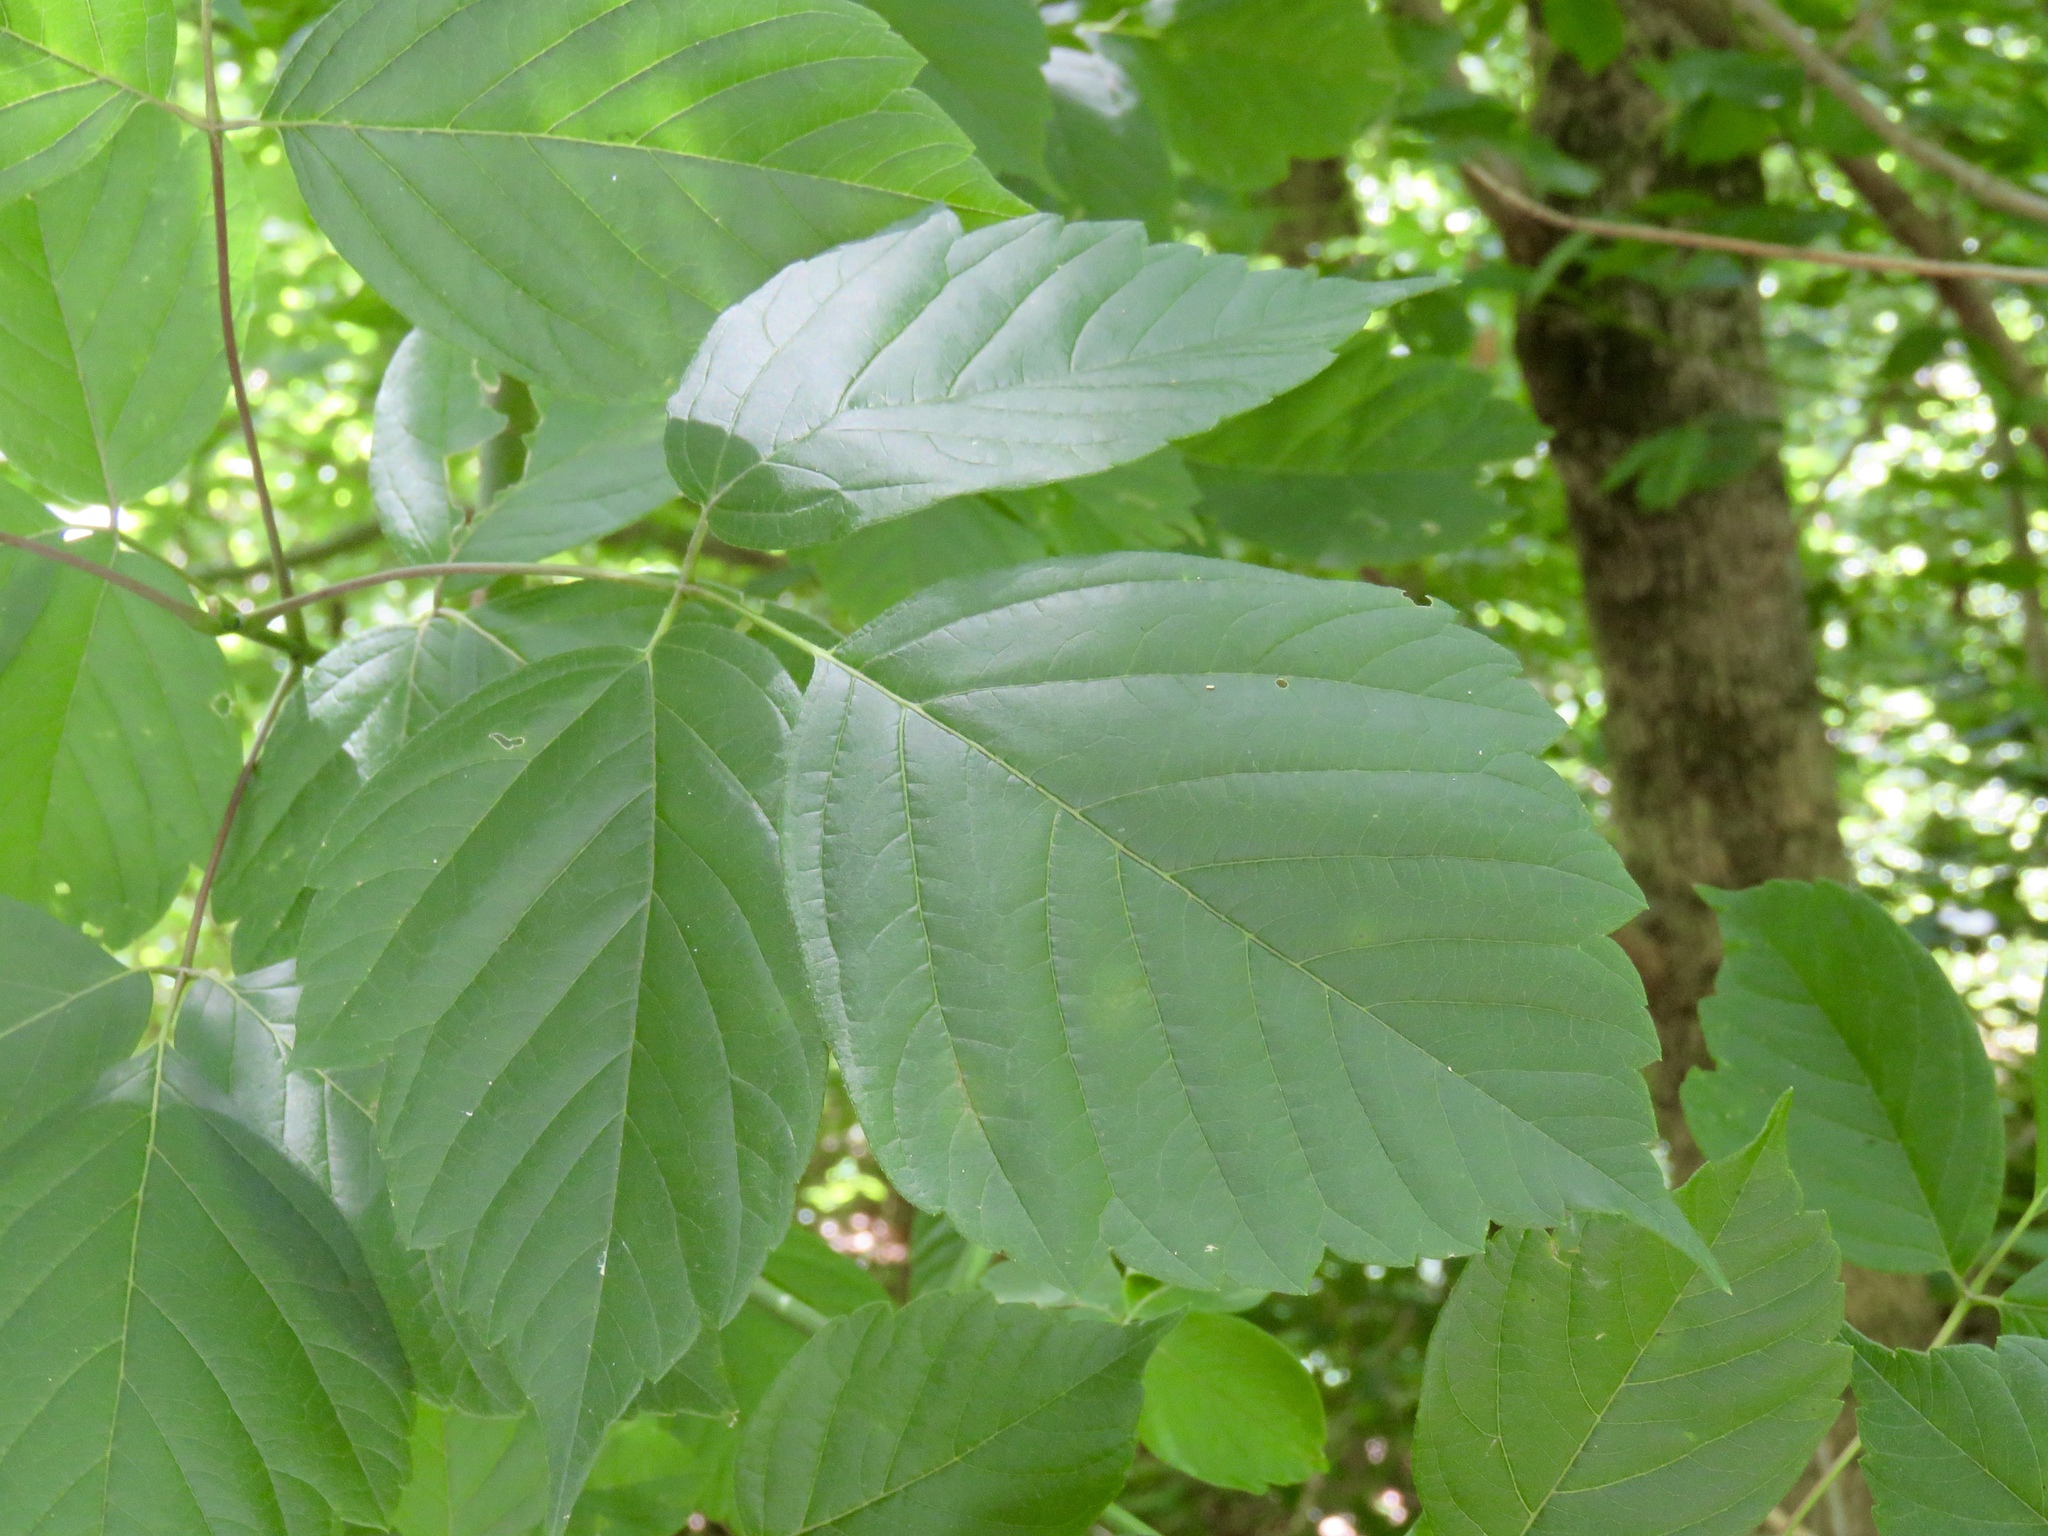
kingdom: Plantae
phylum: Tracheophyta
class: Magnoliopsida
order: Sapindales
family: Sapindaceae
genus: Acer
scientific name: Acer negundo
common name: Ashleaf maple
